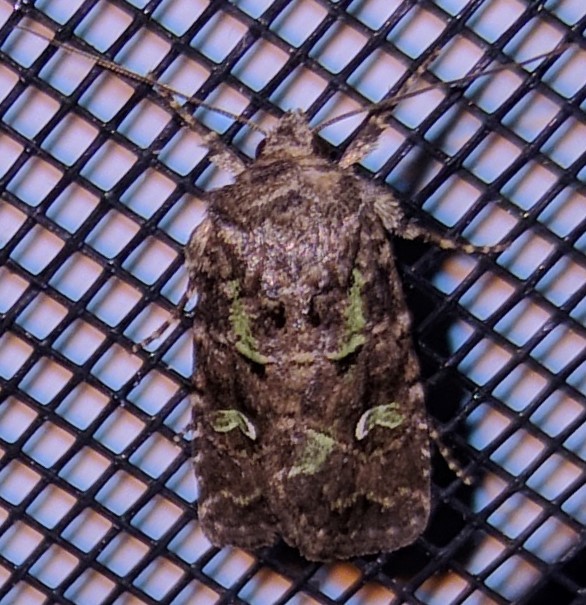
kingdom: Animalia
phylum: Arthropoda
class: Insecta
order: Lepidoptera
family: Noctuidae
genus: Lacinipolia
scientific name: Lacinipolia renigera
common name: Kidney-spotted minor
